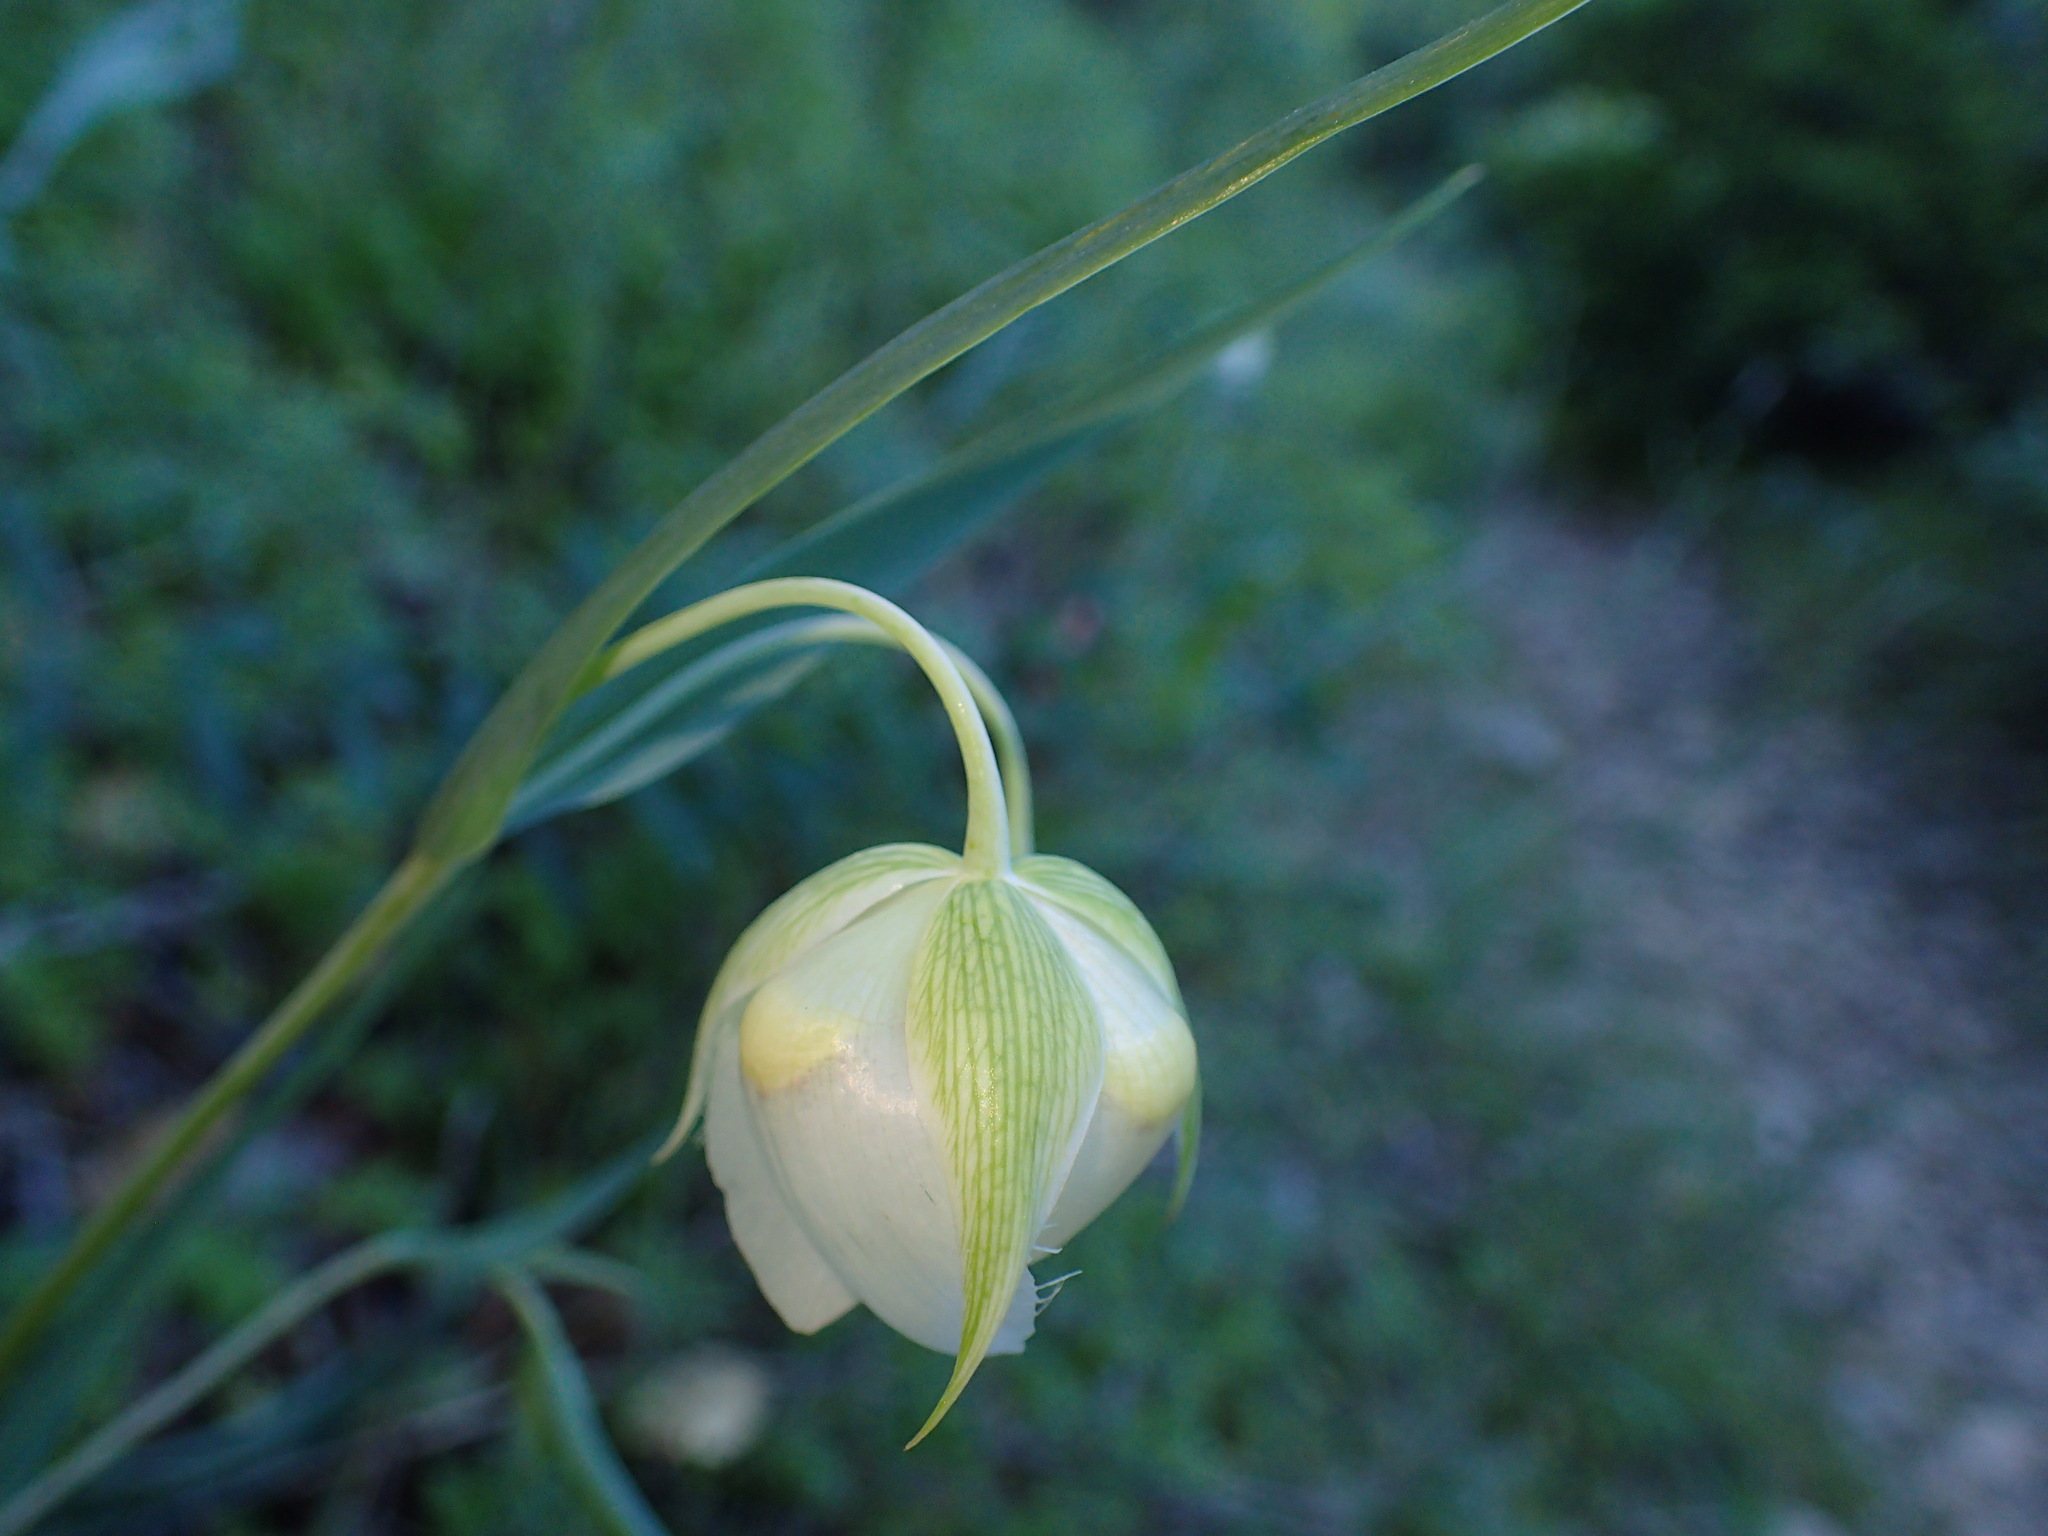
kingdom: Plantae
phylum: Tracheophyta
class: Liliopsida
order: Liliales
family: Liliaceae
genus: Calochortus
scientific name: Calochortus albus
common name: Fairy-lantern
